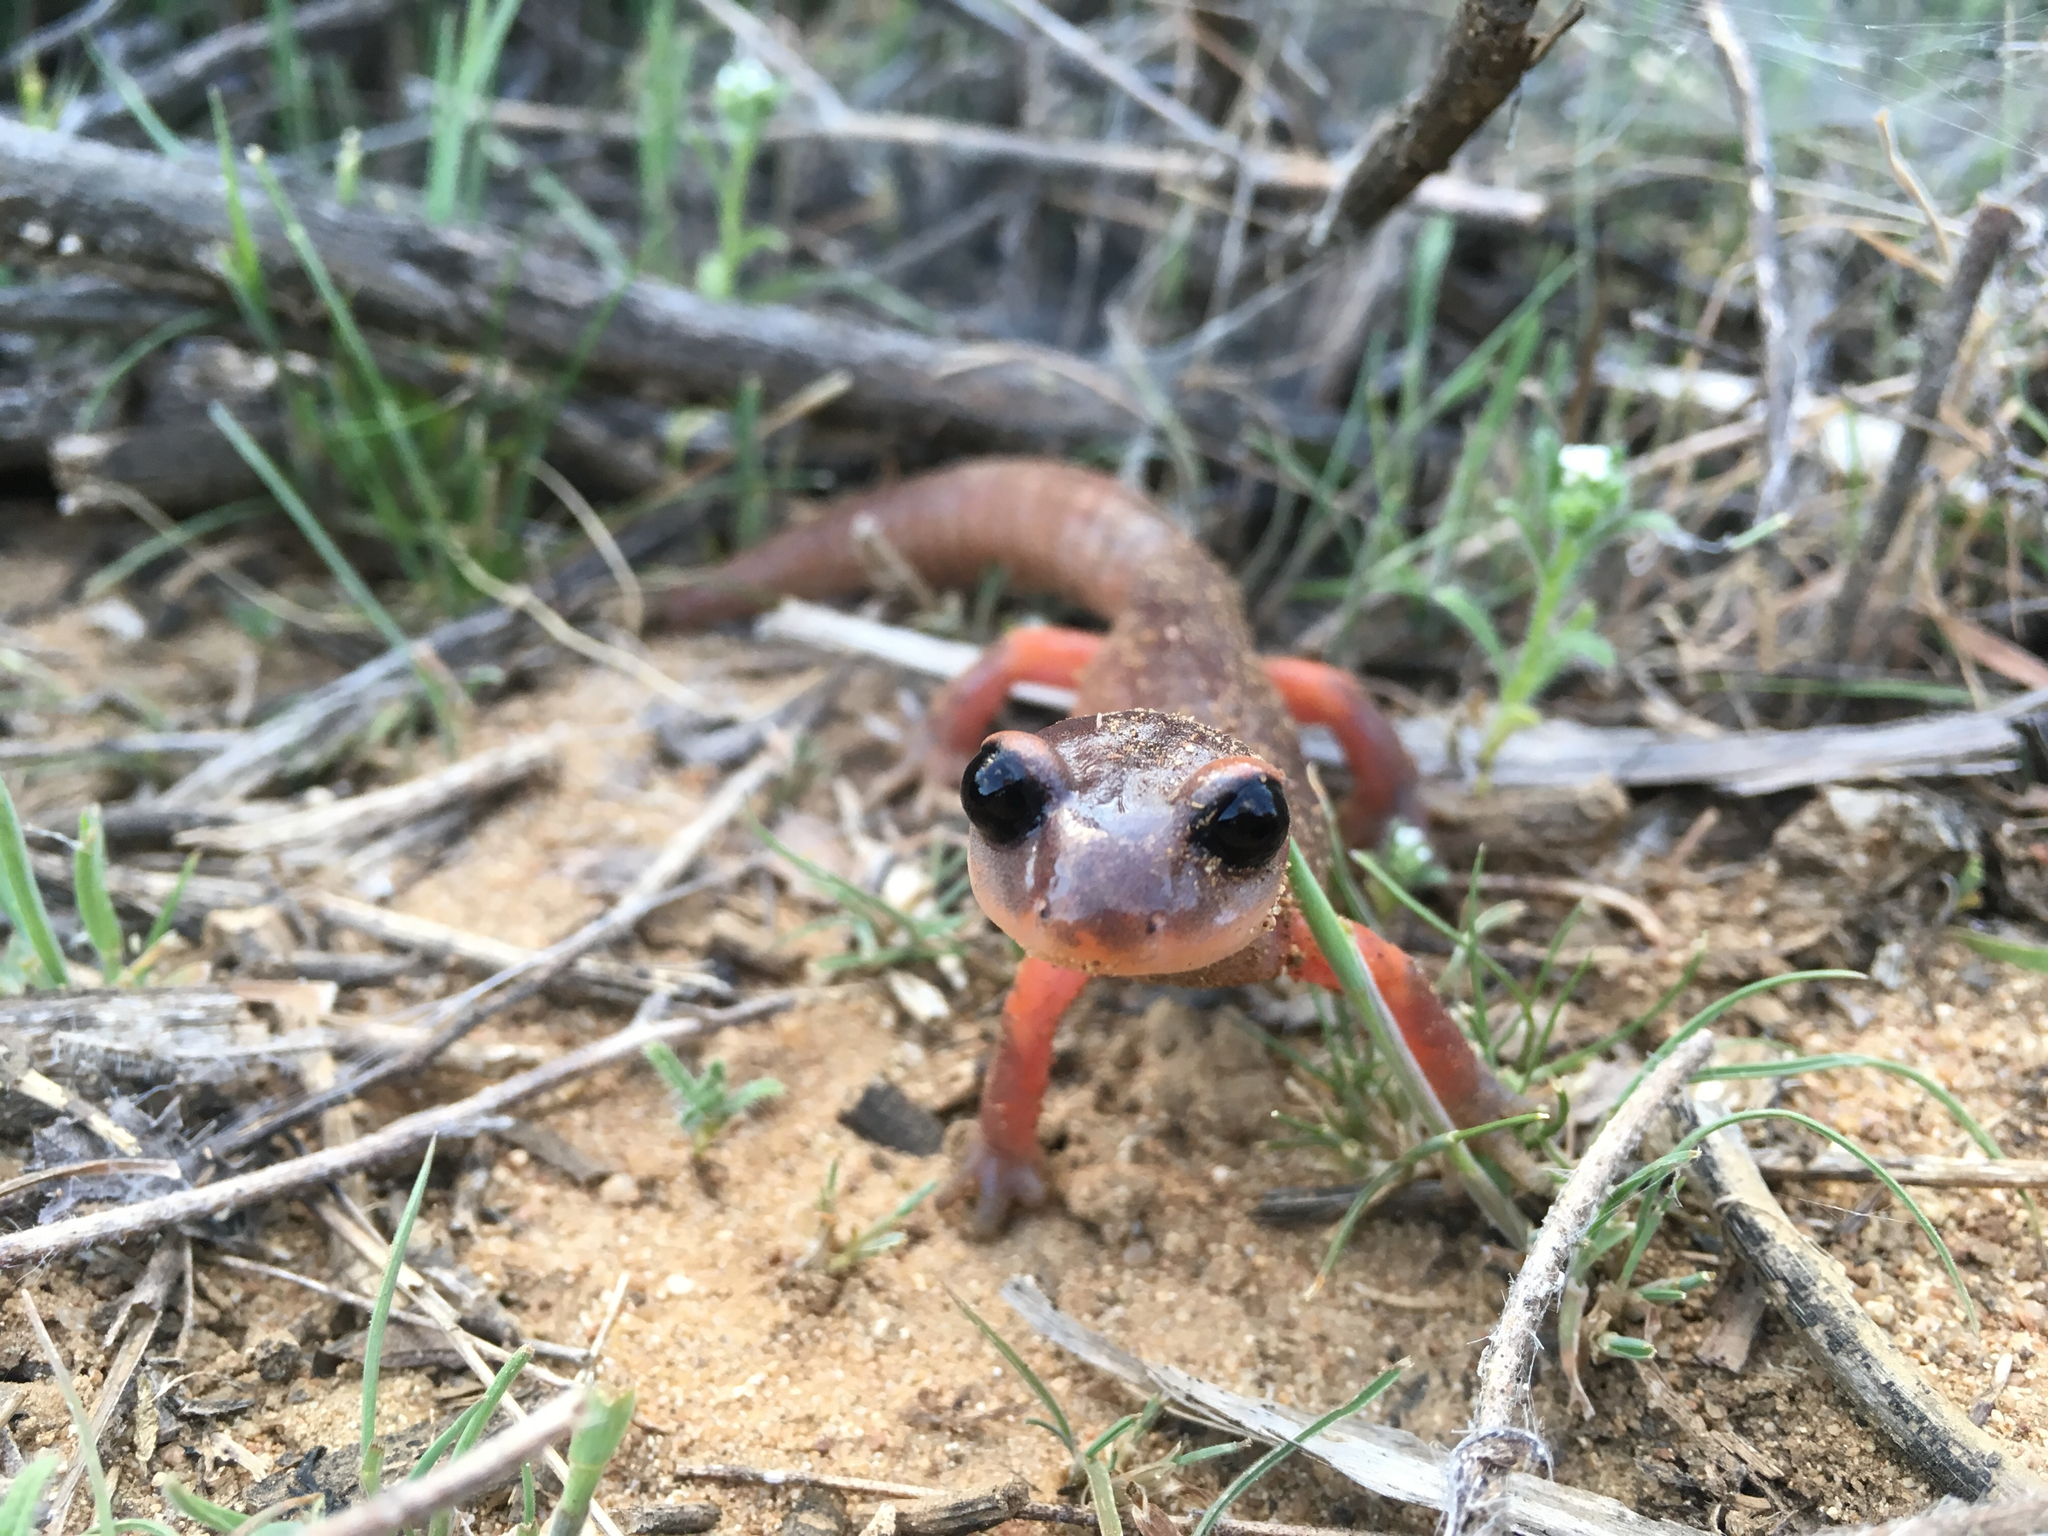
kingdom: Animalia
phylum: Chordata
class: Amphibia
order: Caudata
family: Plethodontidae
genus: Ensatina
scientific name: Ensatina eschscholtzii
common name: Ensatina
